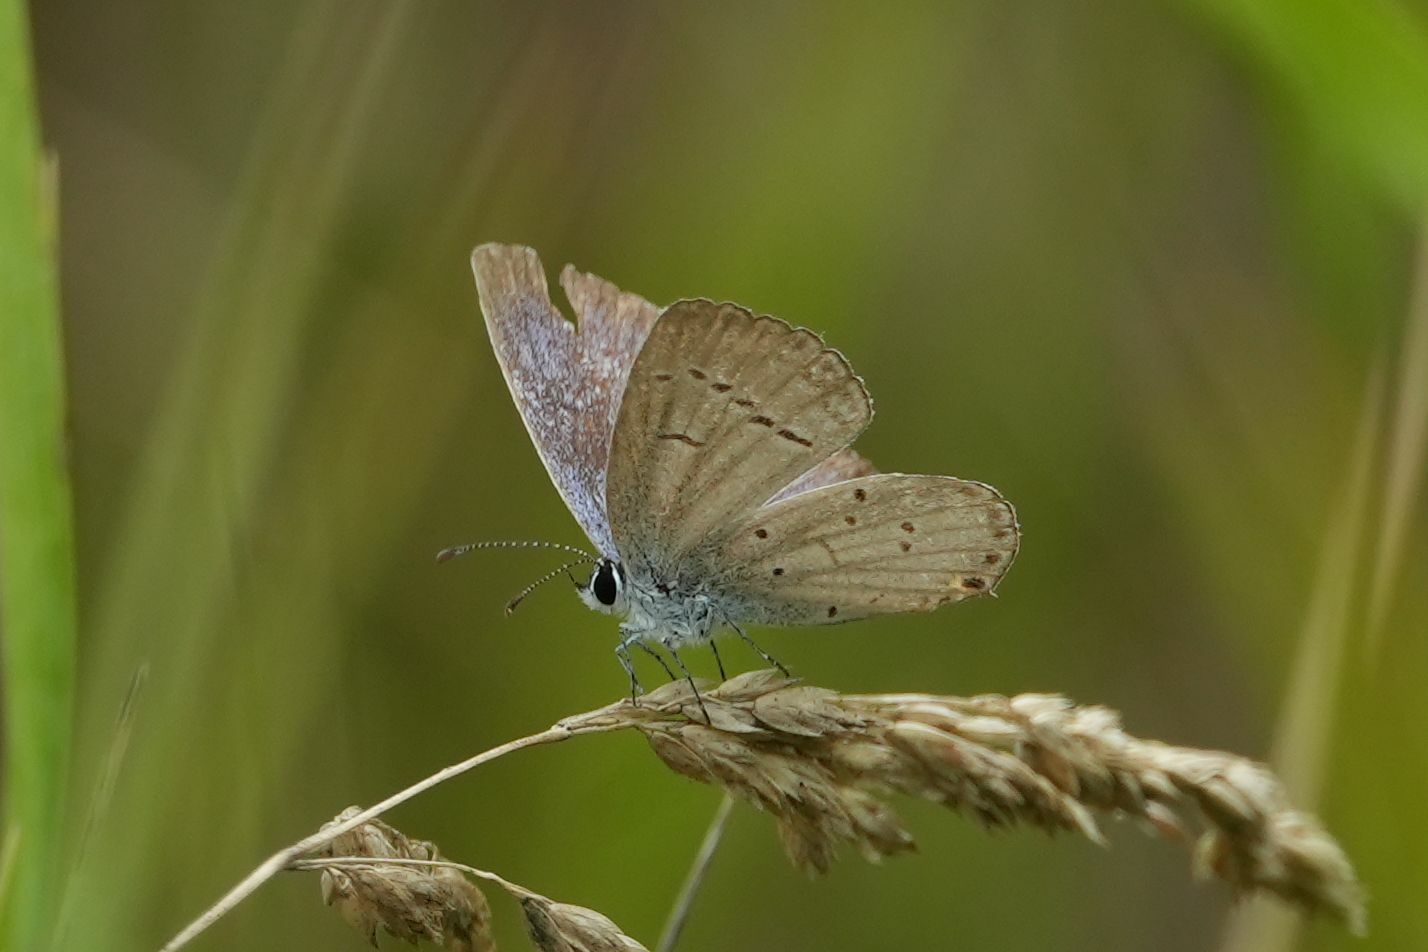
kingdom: Animalia
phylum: Arthropoda
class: Insecta
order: Lepidoptera
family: Lycaenidae
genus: Elkalyce
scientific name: Elkalyce comyntas
